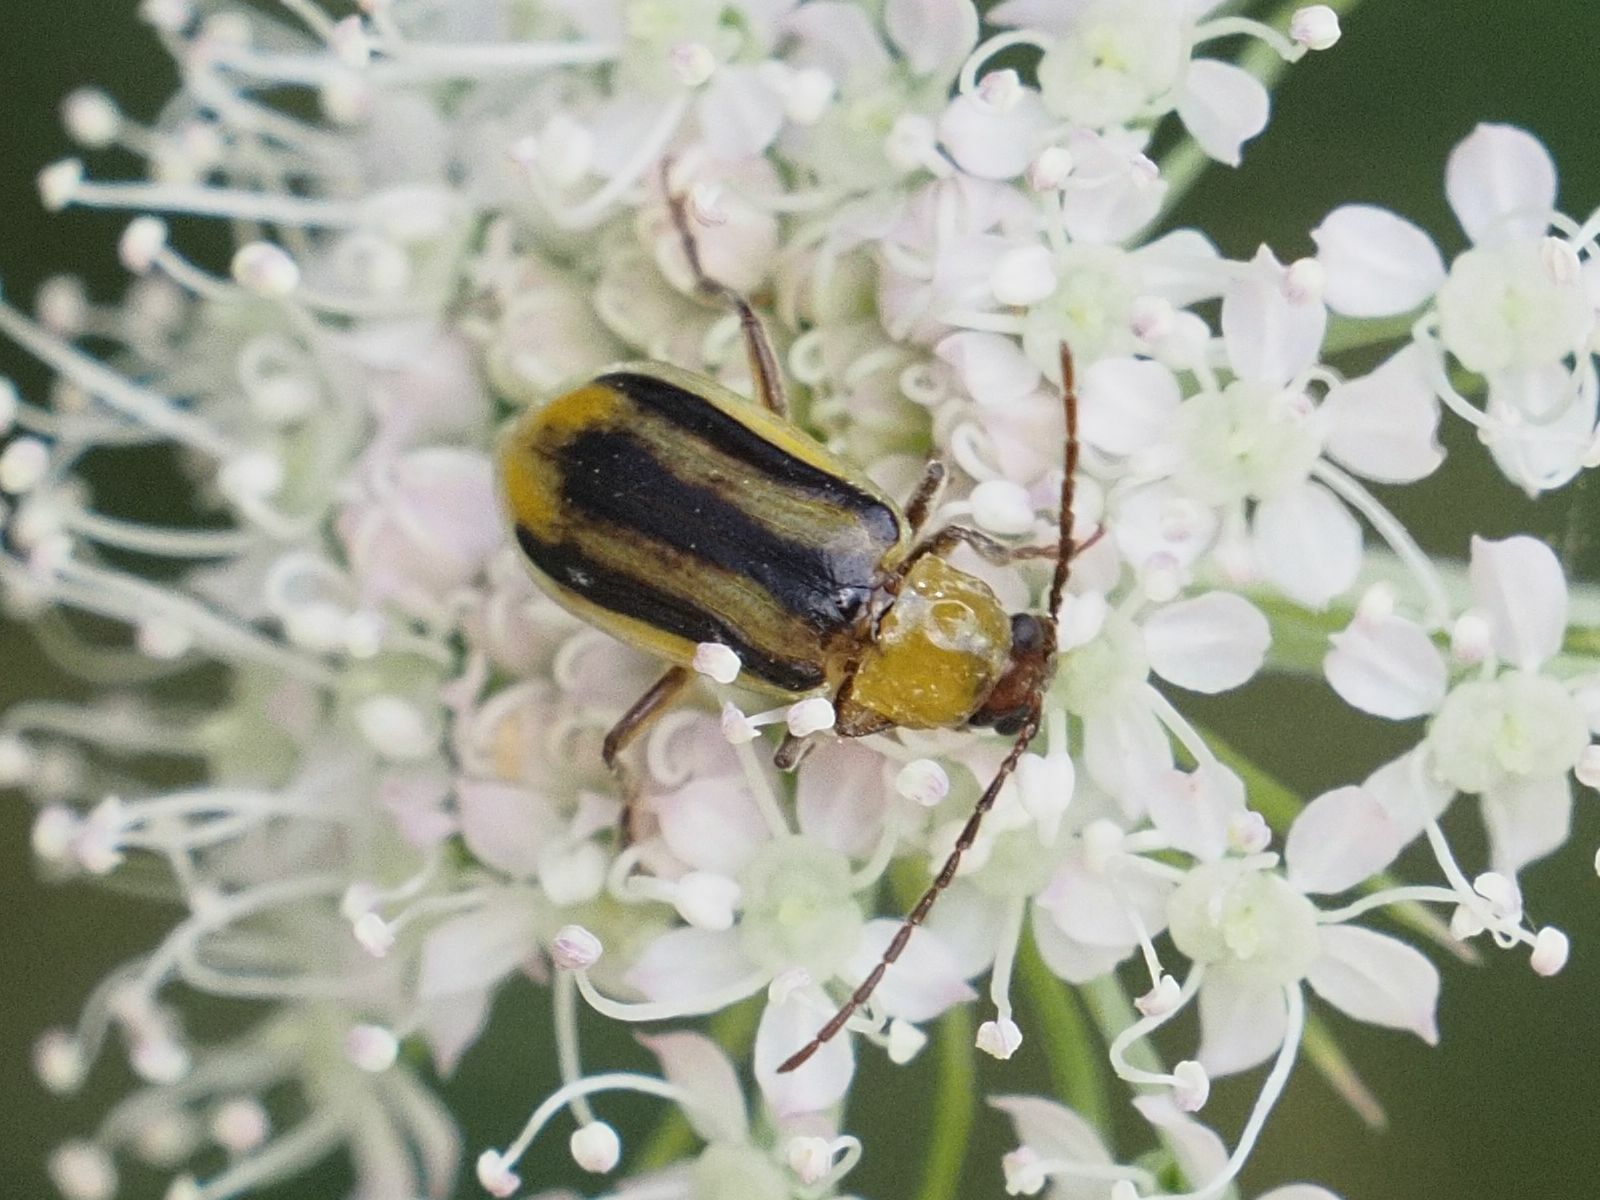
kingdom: Animalia
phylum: Arthropoda
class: Insecta
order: Coleoptera
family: Chrysomelidae
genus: Diabrotica
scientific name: Diabrotica virgifera
